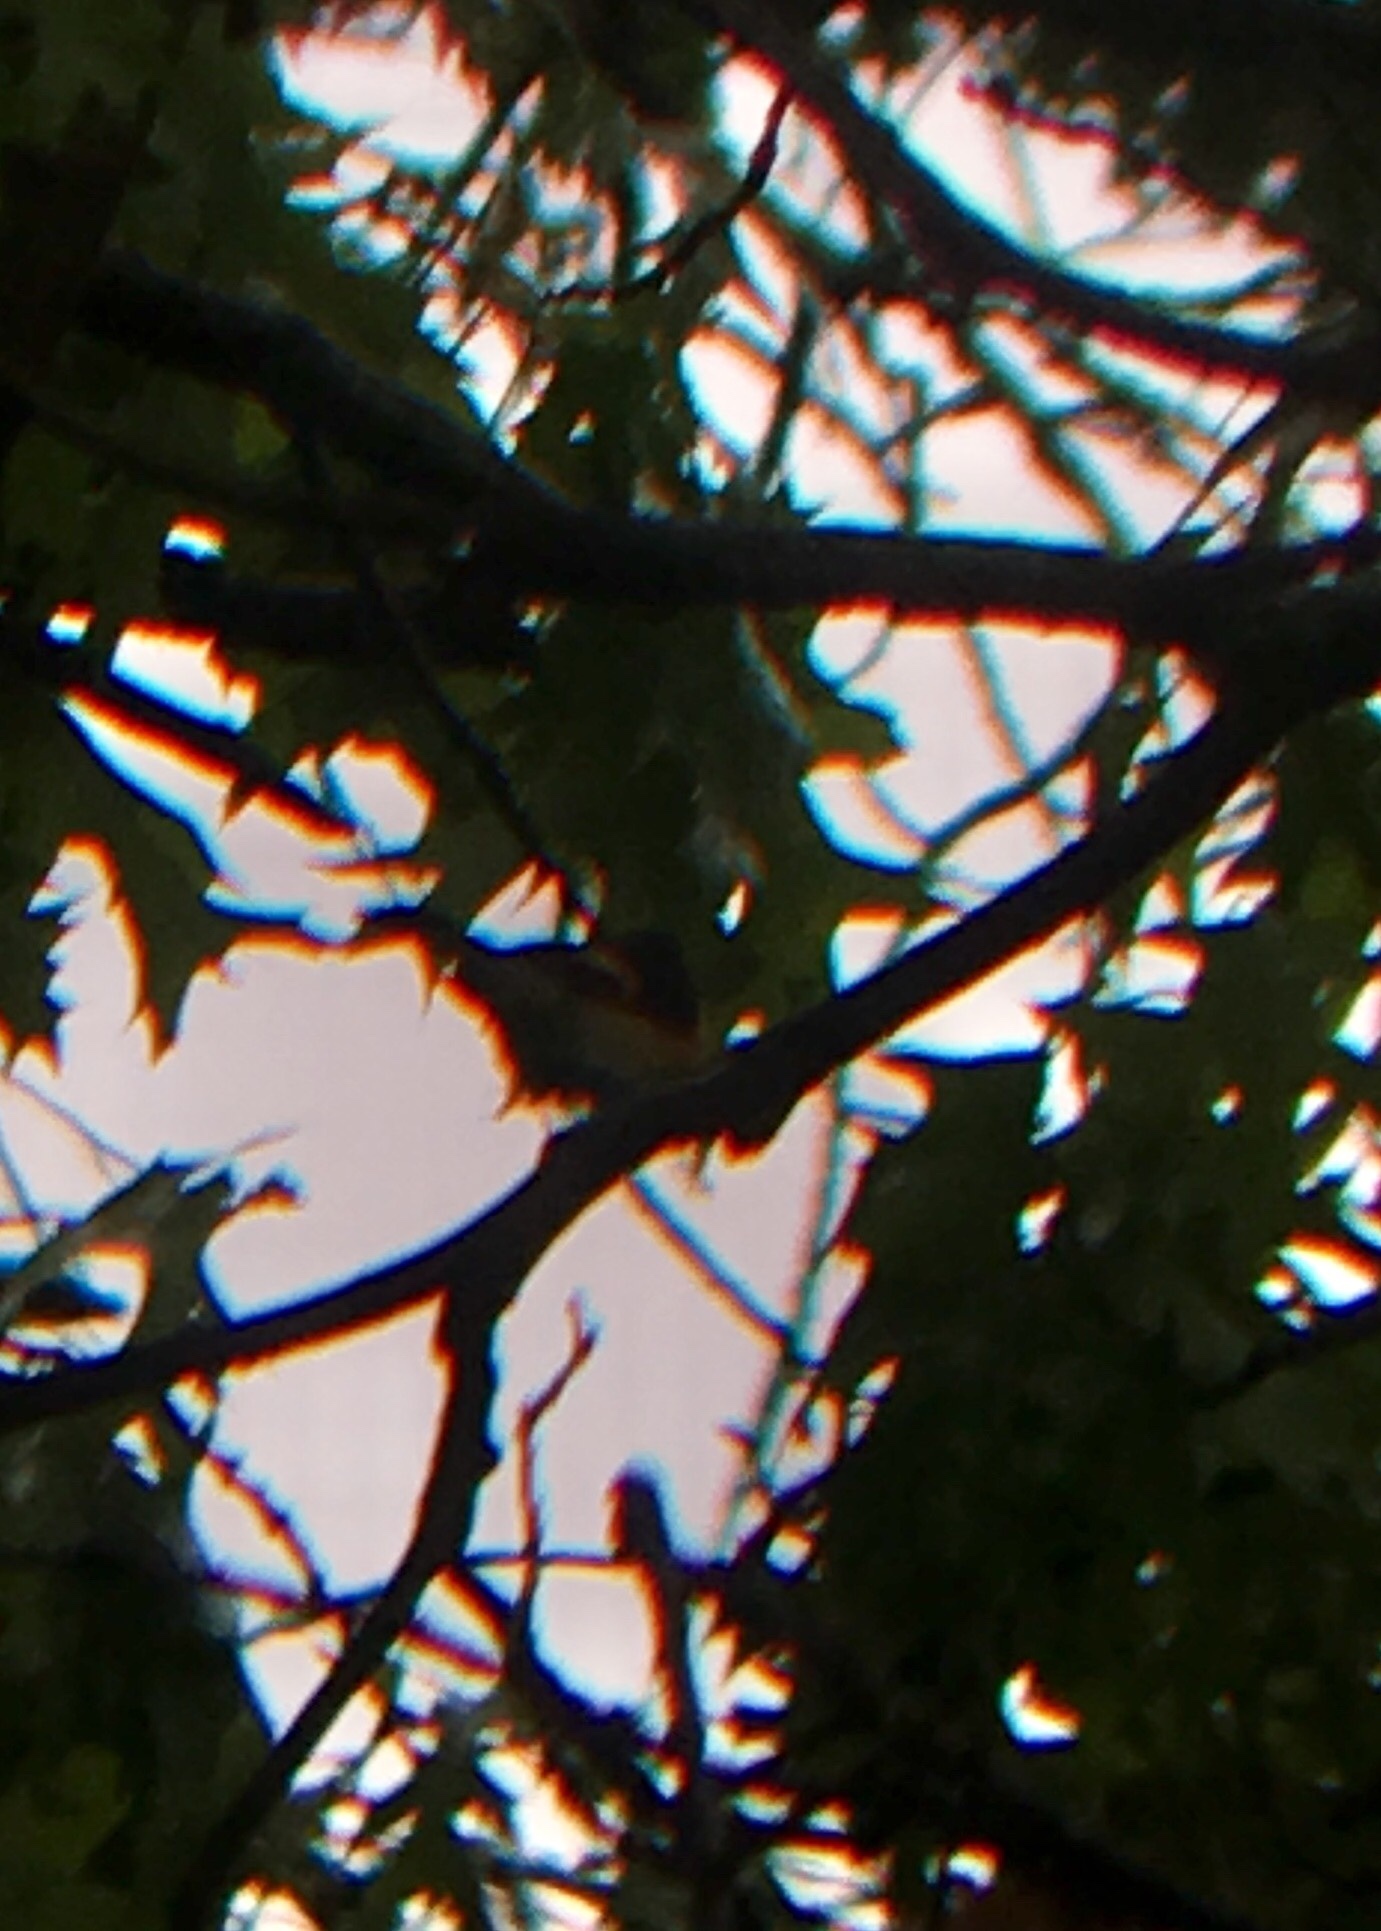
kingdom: Animalia
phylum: Chordata
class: Aves
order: Passeriformes
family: Parulidae
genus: Setophaga
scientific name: Setophaga ruticilla
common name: American redstart
